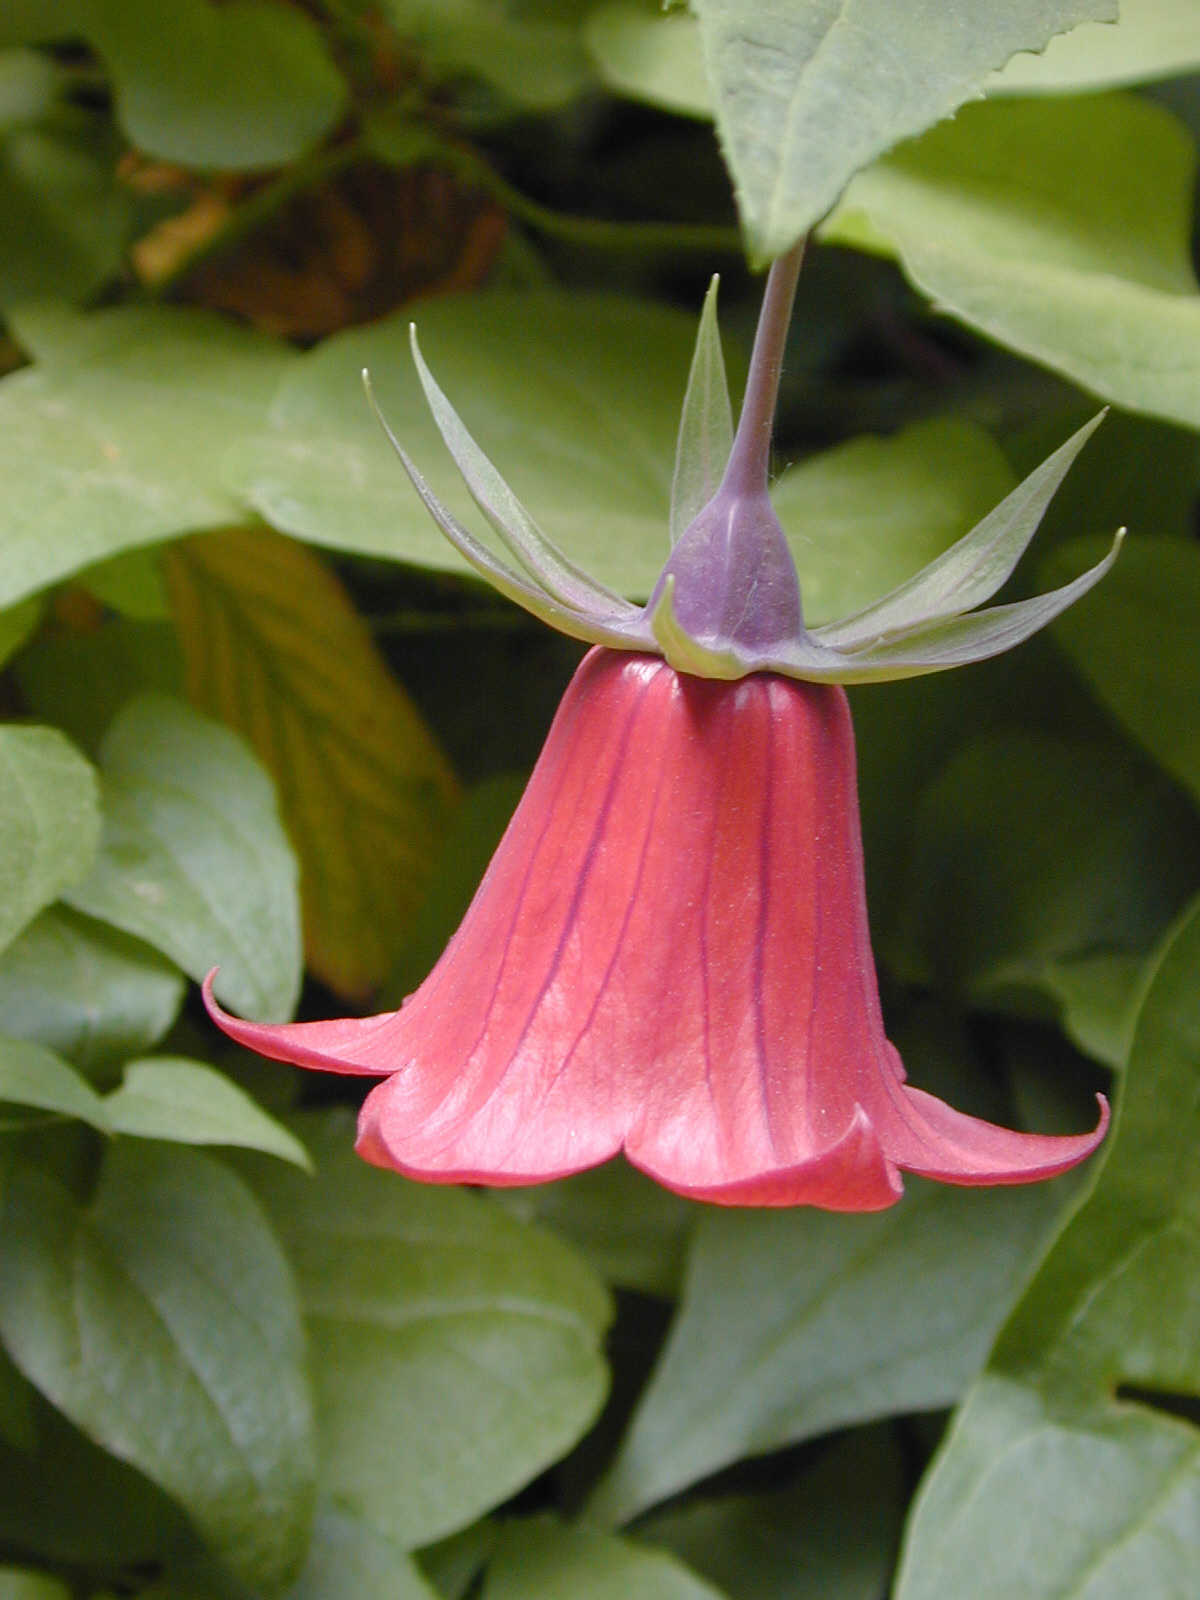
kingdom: Plantae
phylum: Tracheophyta
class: Magnoliopsida
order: Asterales
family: Campanulaceae
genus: Canarina
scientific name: Canarina canariensis
